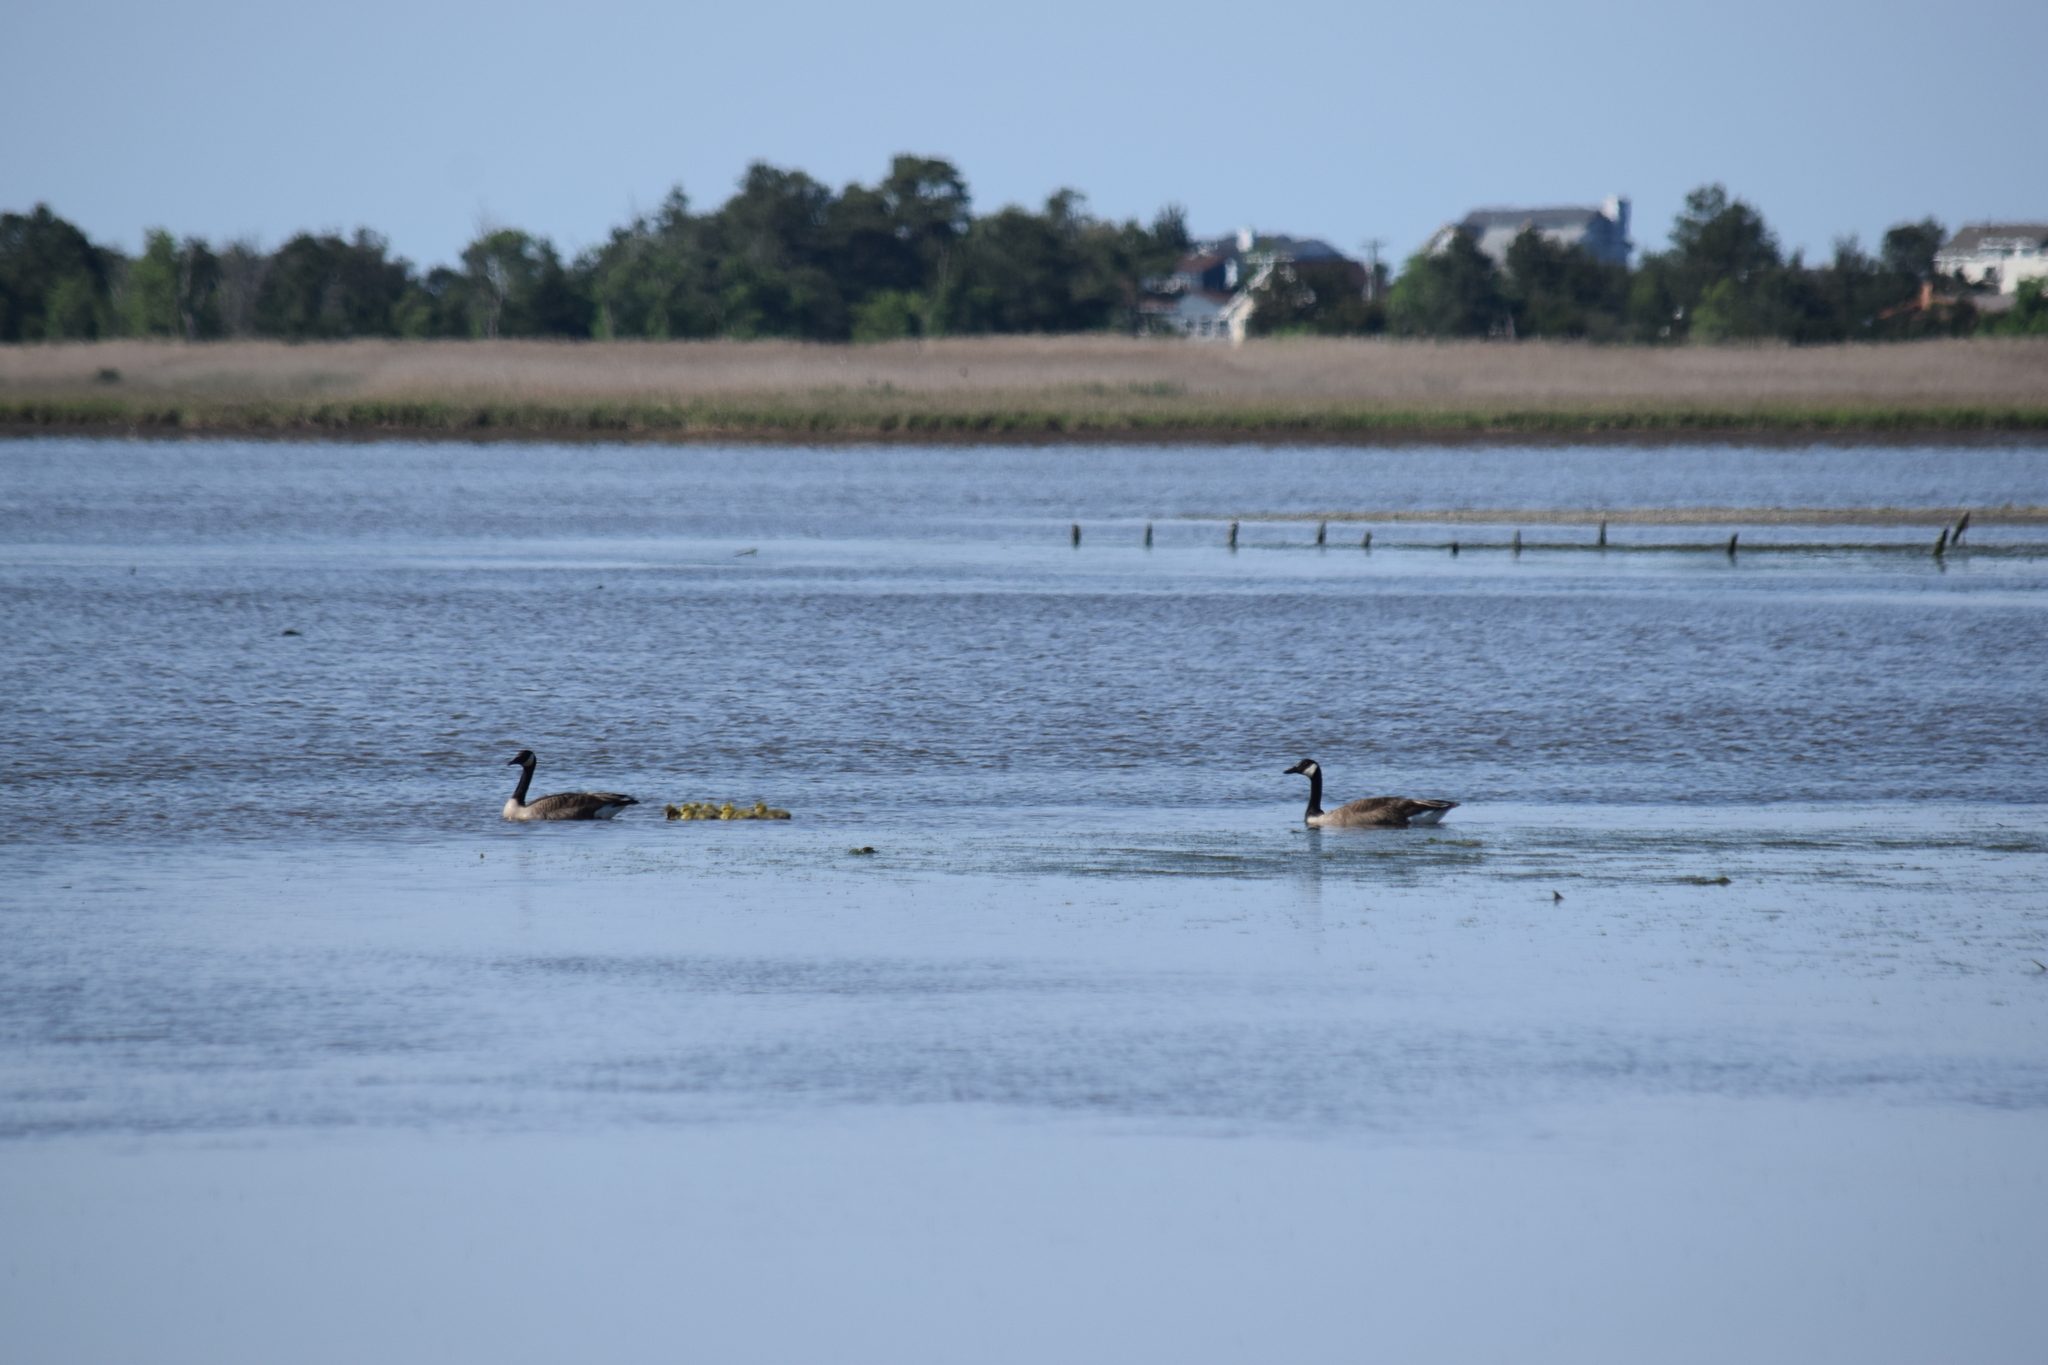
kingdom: Animalia
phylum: Chordata
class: Aves
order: Anseriformes
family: Anatidae
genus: Branta
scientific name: Branta canadensis
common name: Canada goose
